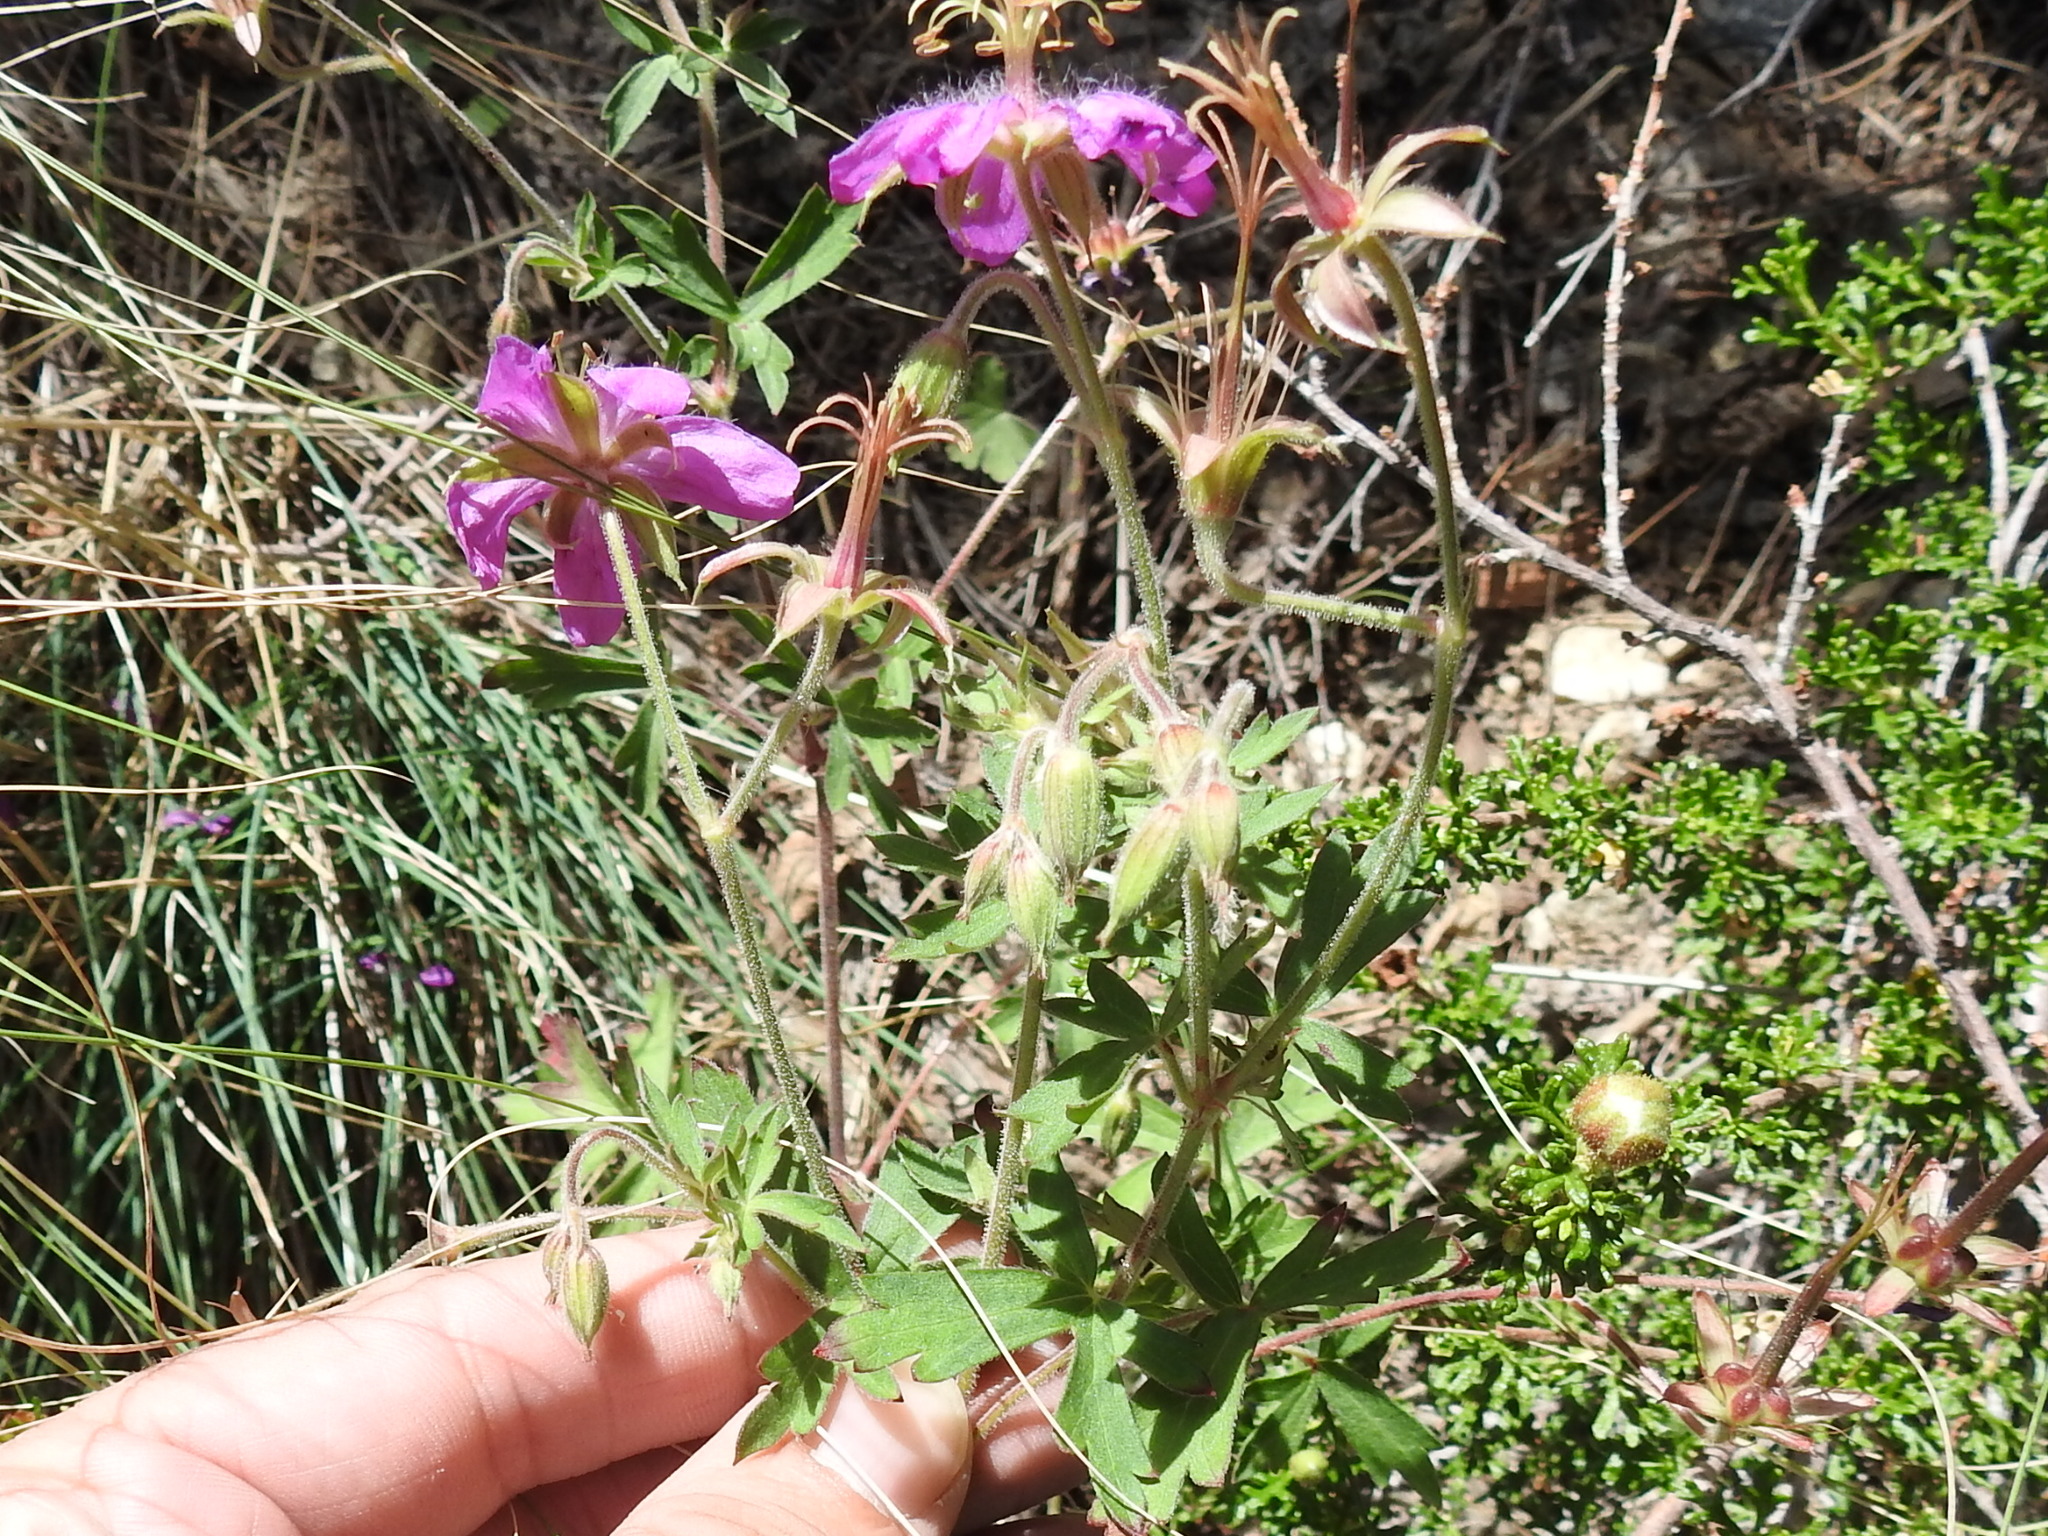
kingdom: Plantae
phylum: Tracheophyta
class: Magnoliopsida
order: Geraniales
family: Geraniaceae
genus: Geranium
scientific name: Geranium caespitosum
